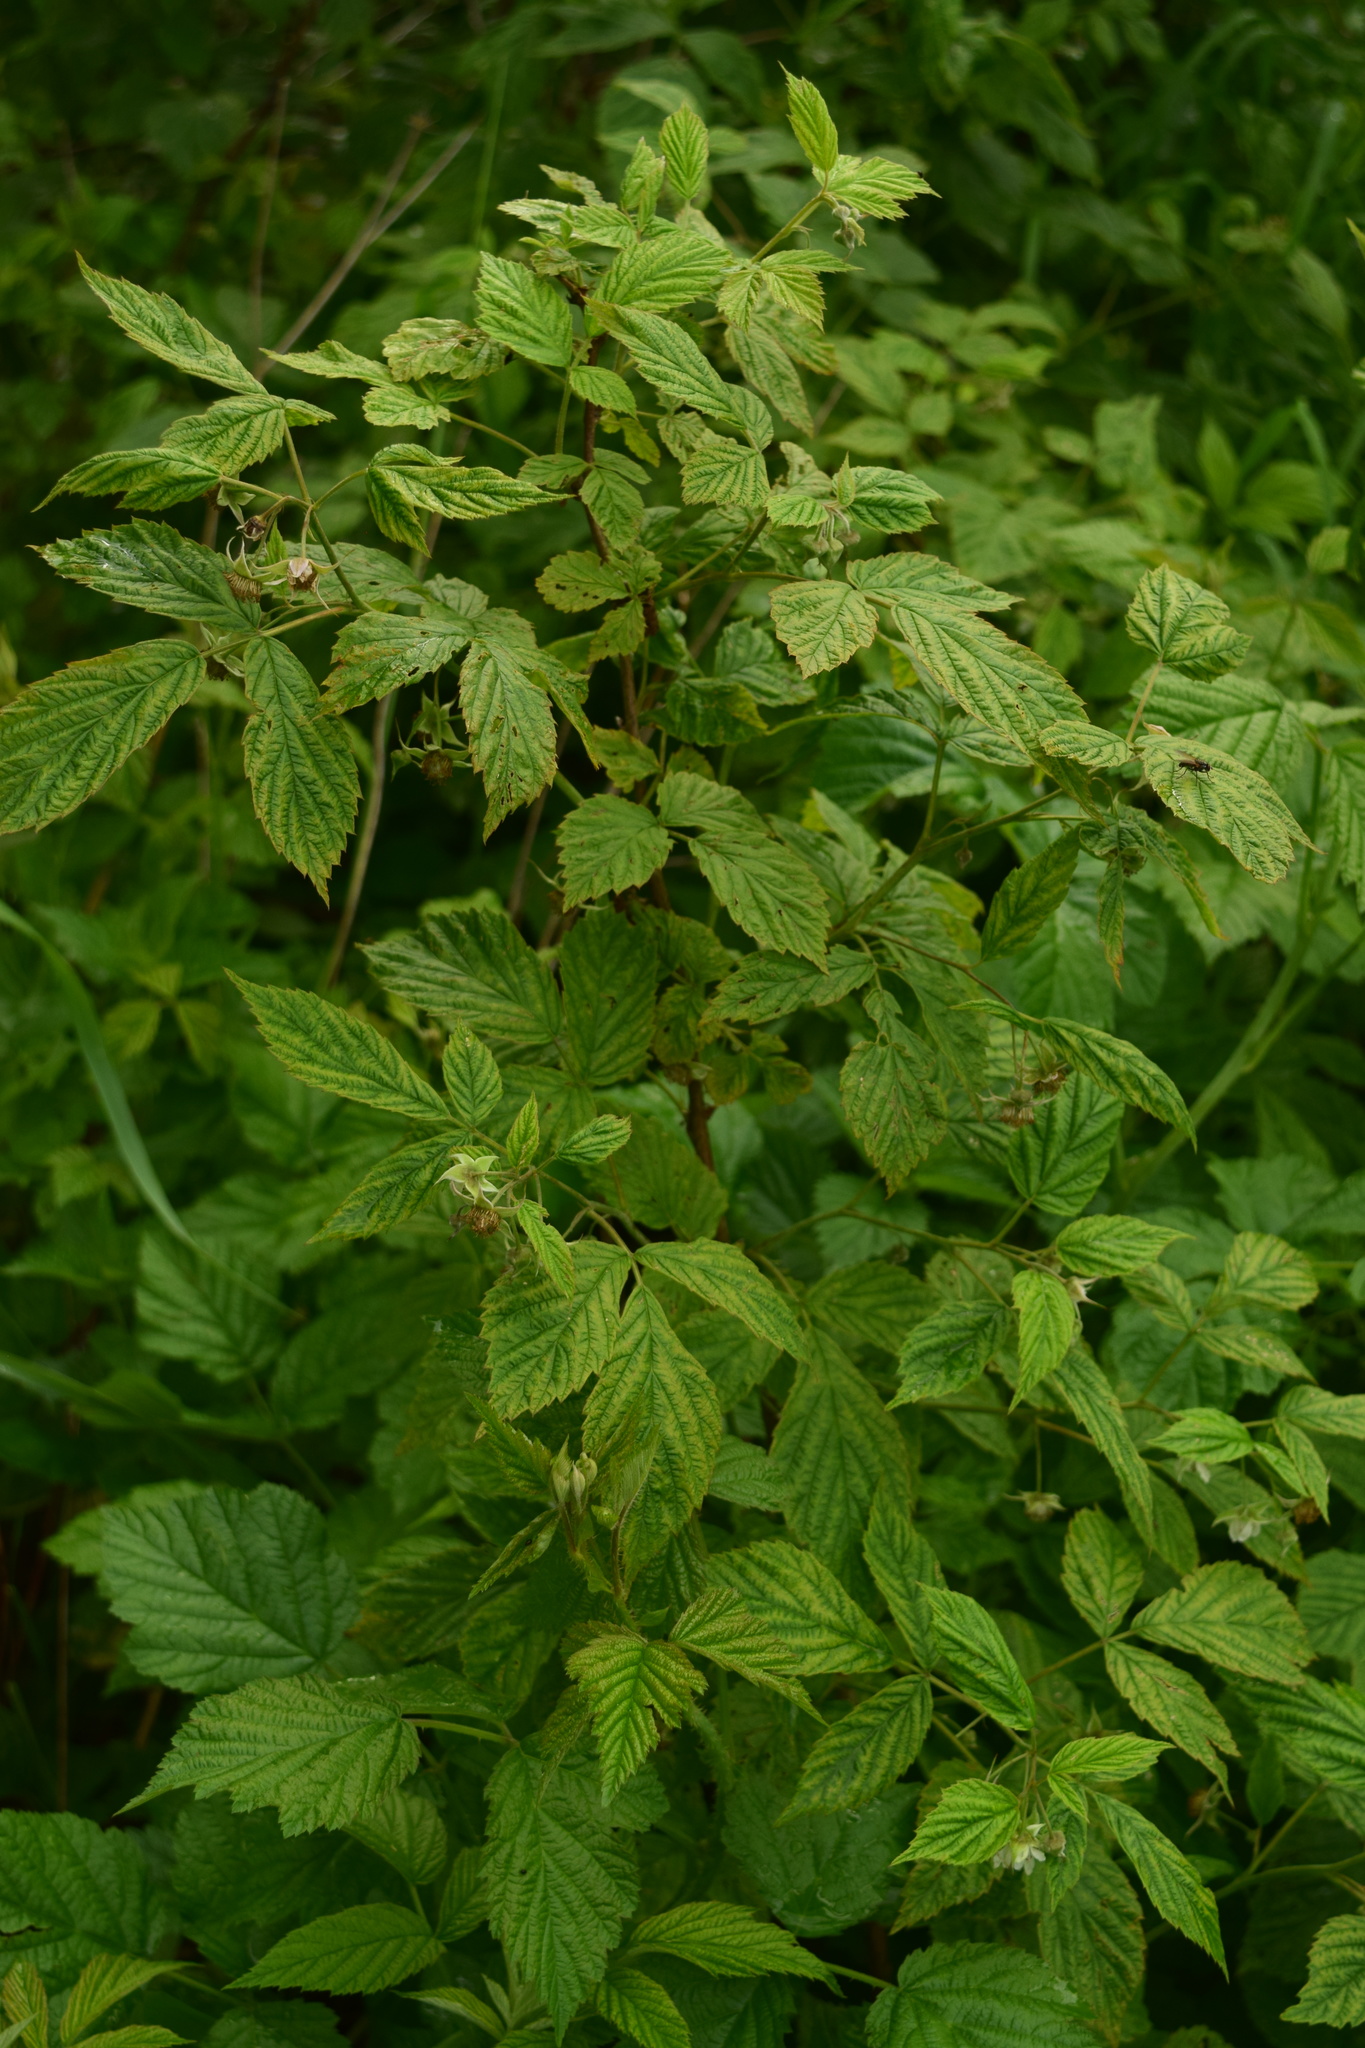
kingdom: Plantae
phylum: Tracheophyta
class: Magnoliopsida
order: Rosales
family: Rosaceae
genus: Rubus
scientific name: Rubus idaeus
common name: Raspberry
